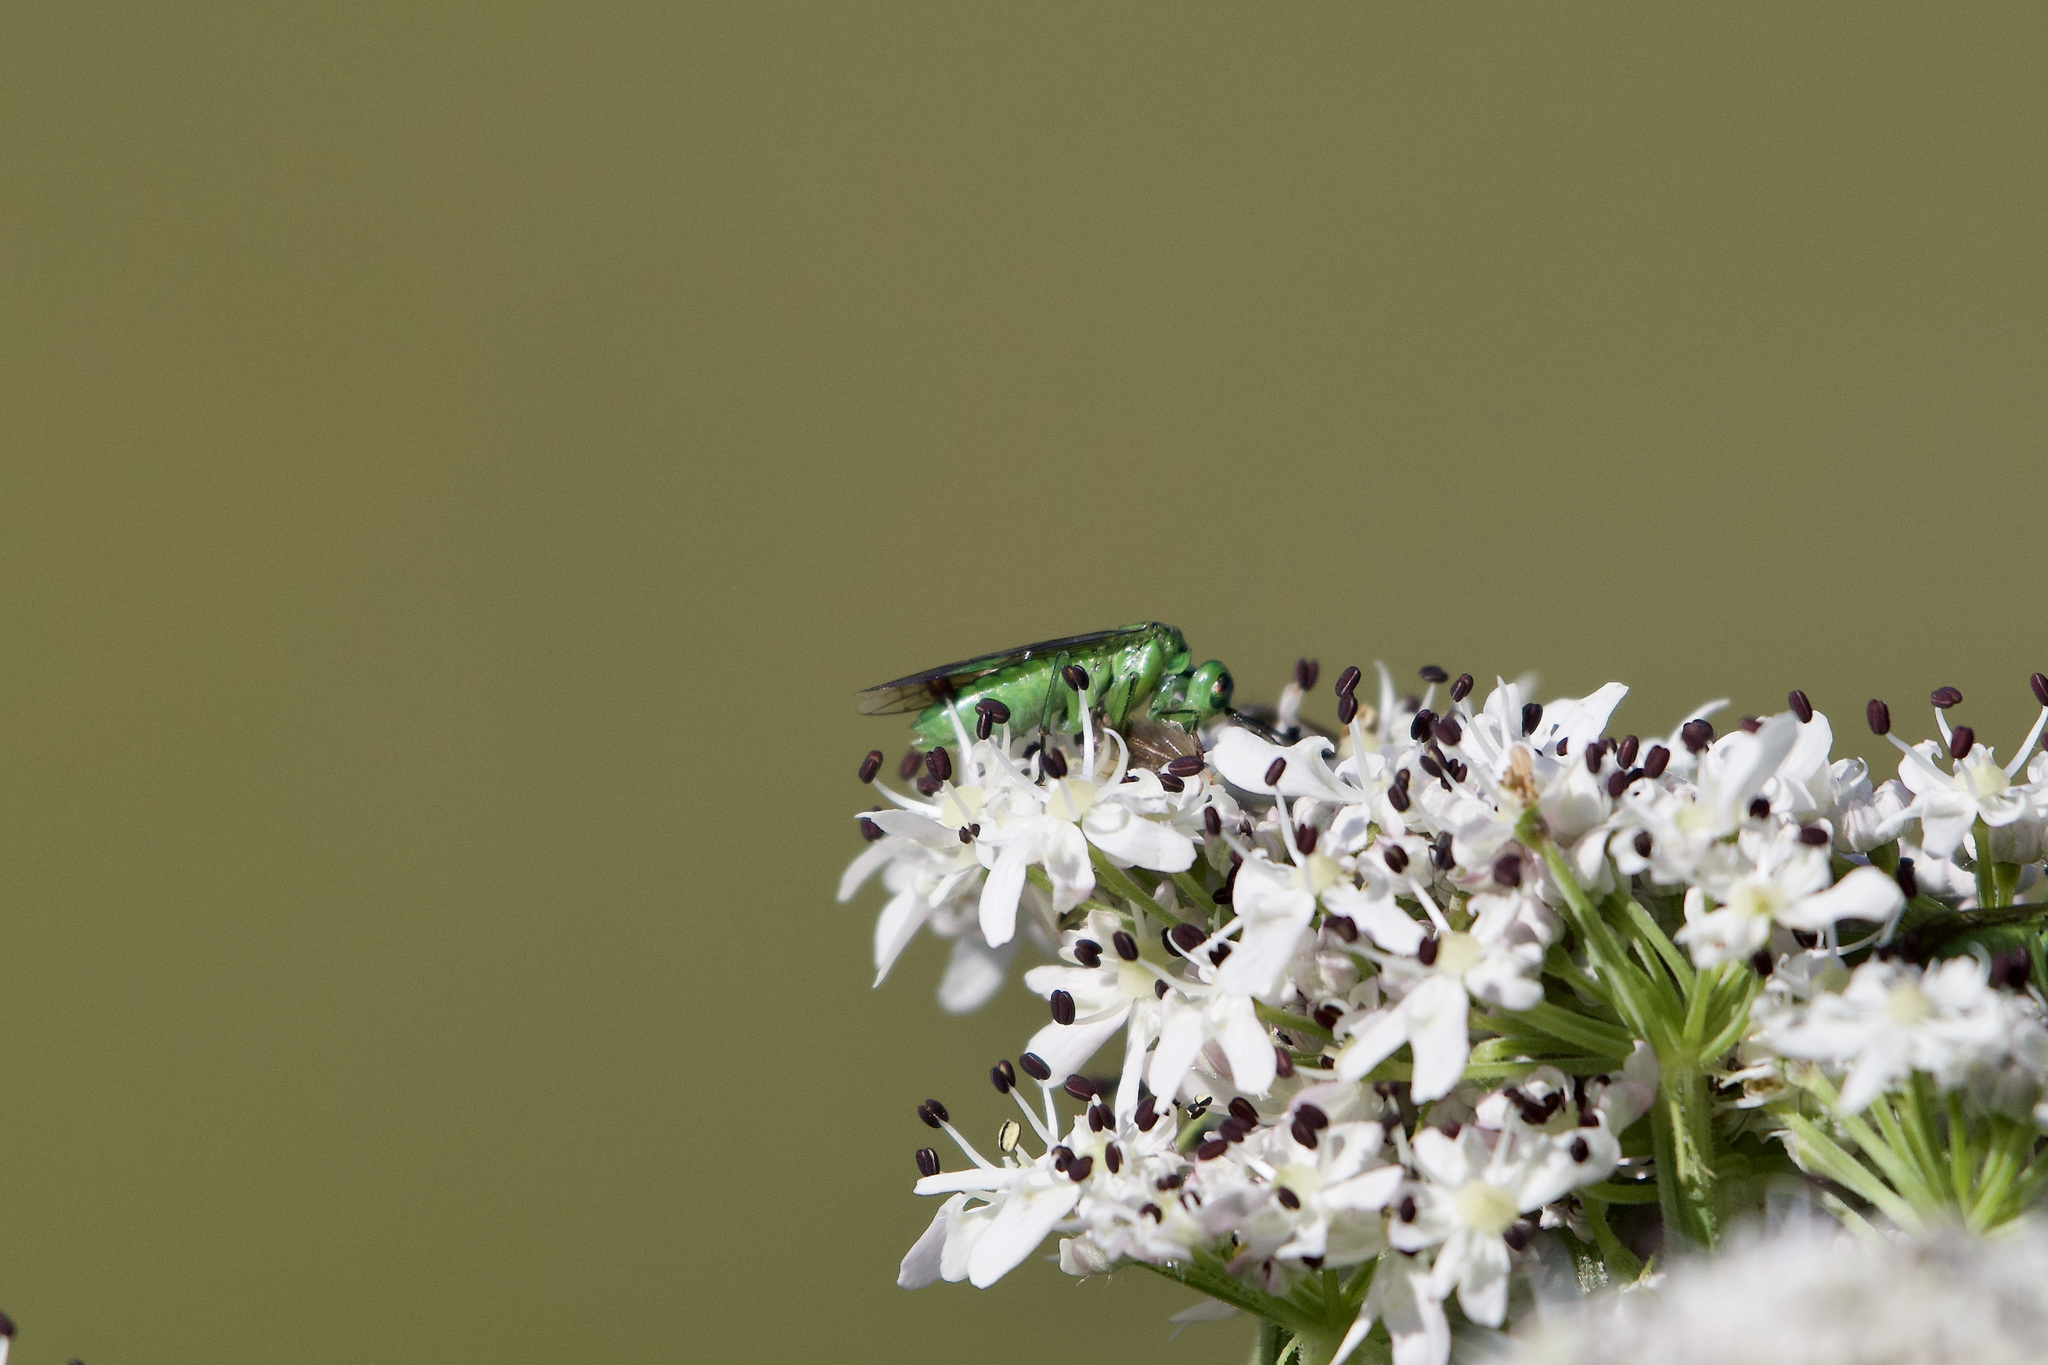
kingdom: Animalia
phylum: Arthropoda
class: Insecta
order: Hymenoptera
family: Tenthredinidae
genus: Tenthredo
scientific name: Tenthredo olivacea
